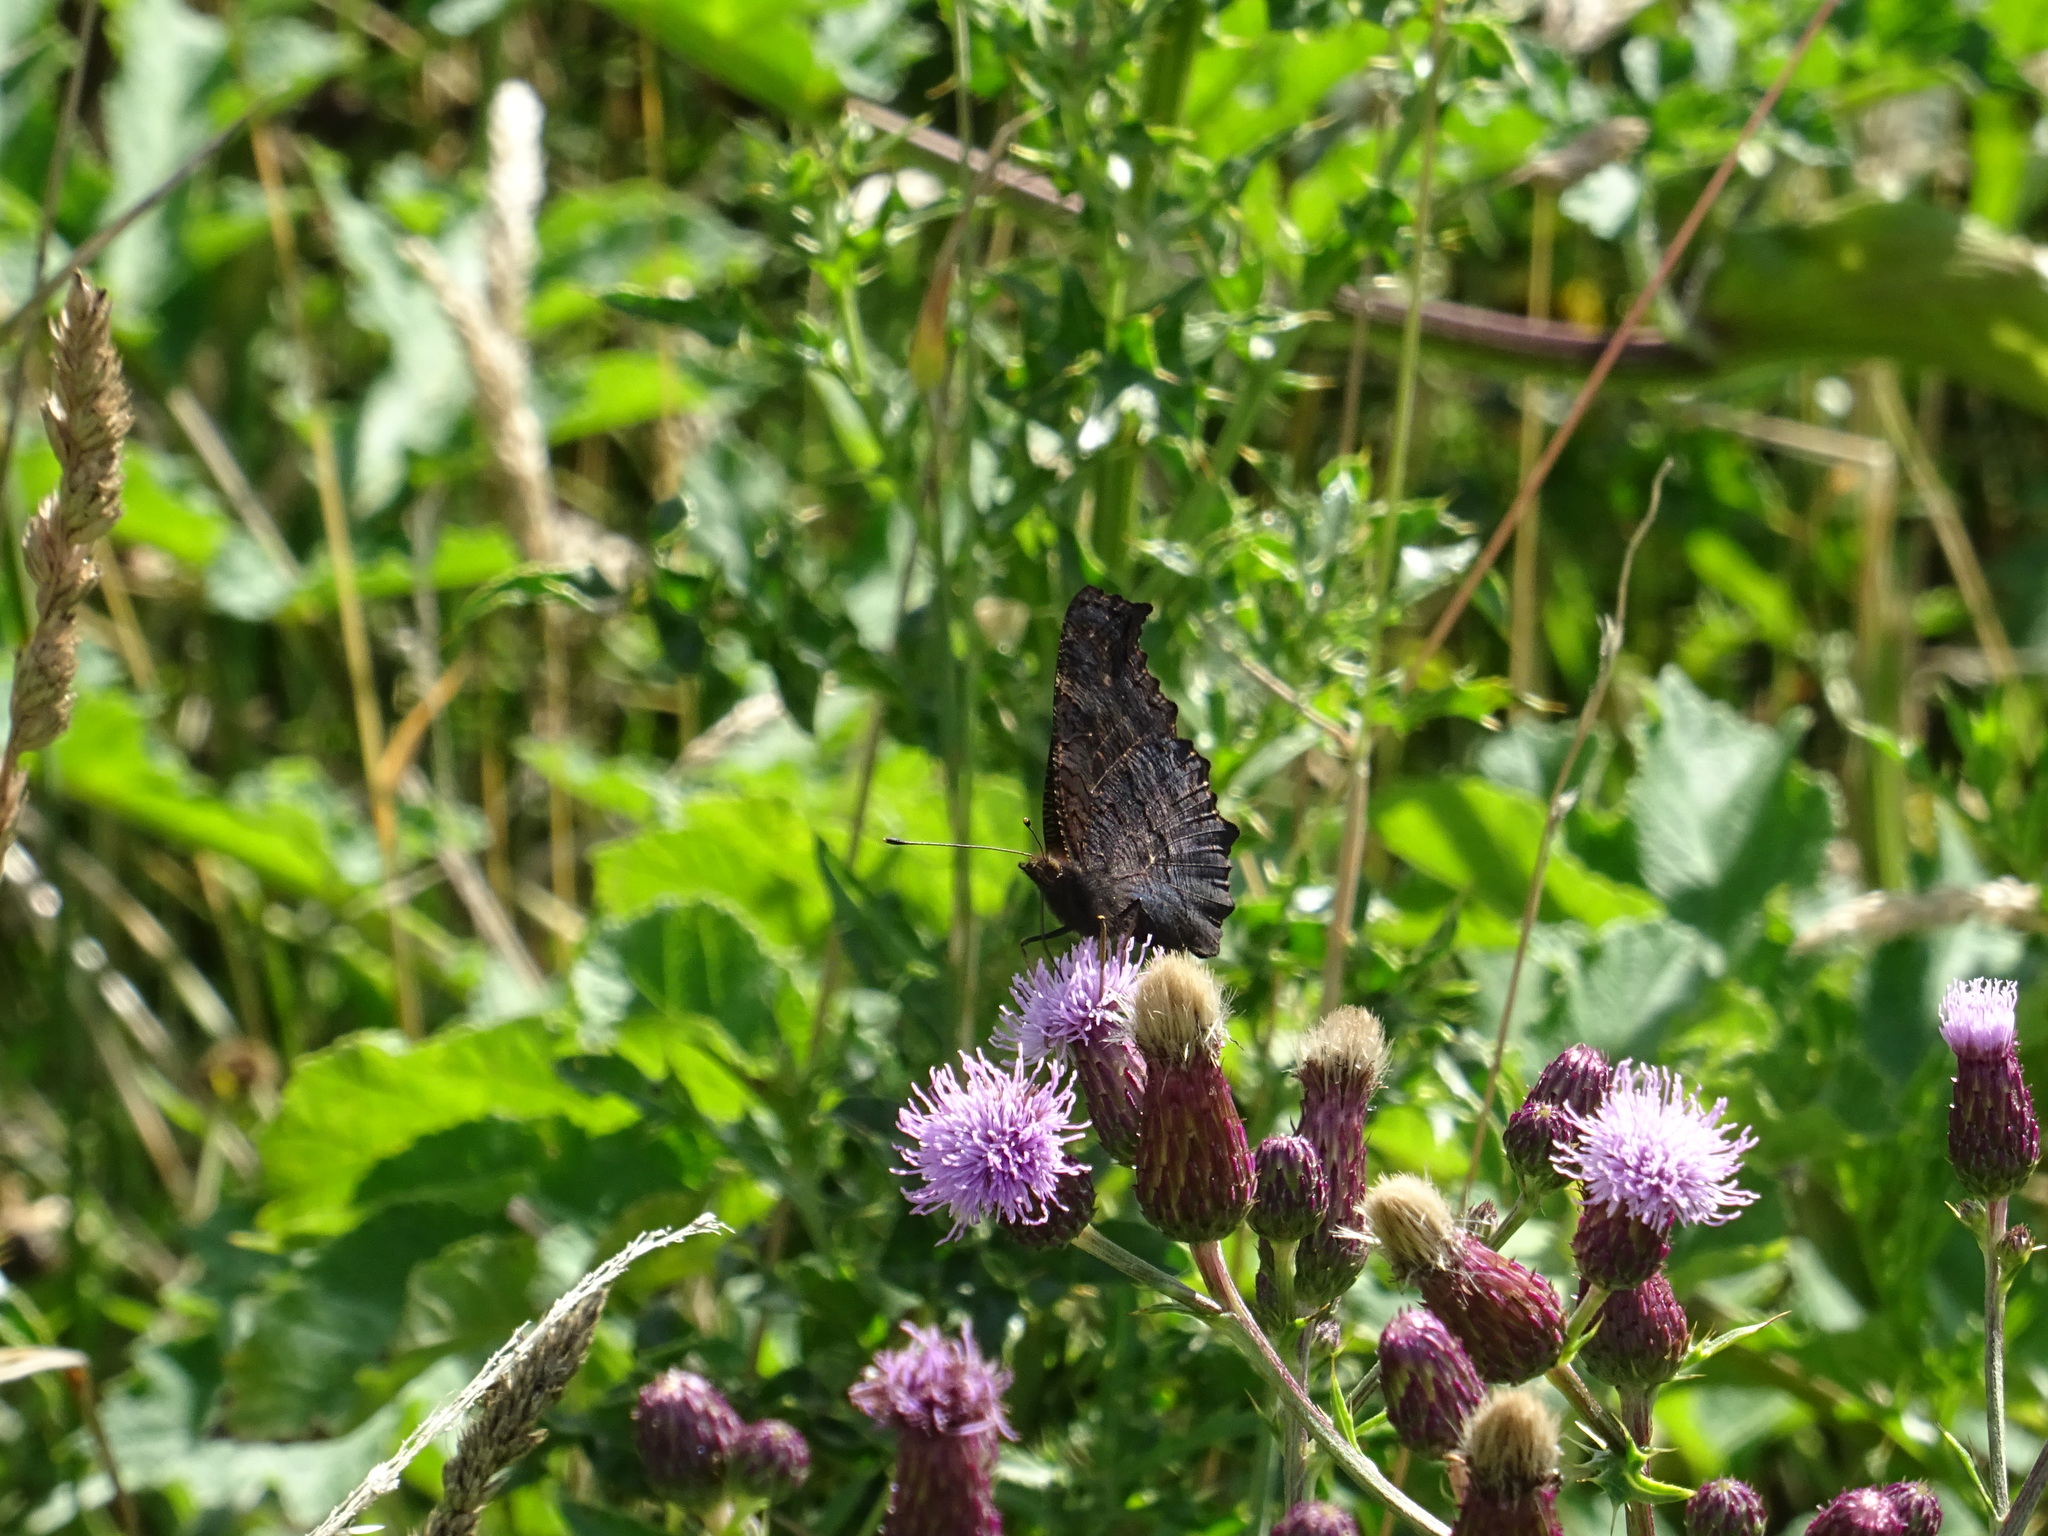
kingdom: Animalia
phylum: Arthropoda
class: Insecta
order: Lepidoptera
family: Nymphalidae
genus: Aglais
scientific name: Aglais io
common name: Peacock
